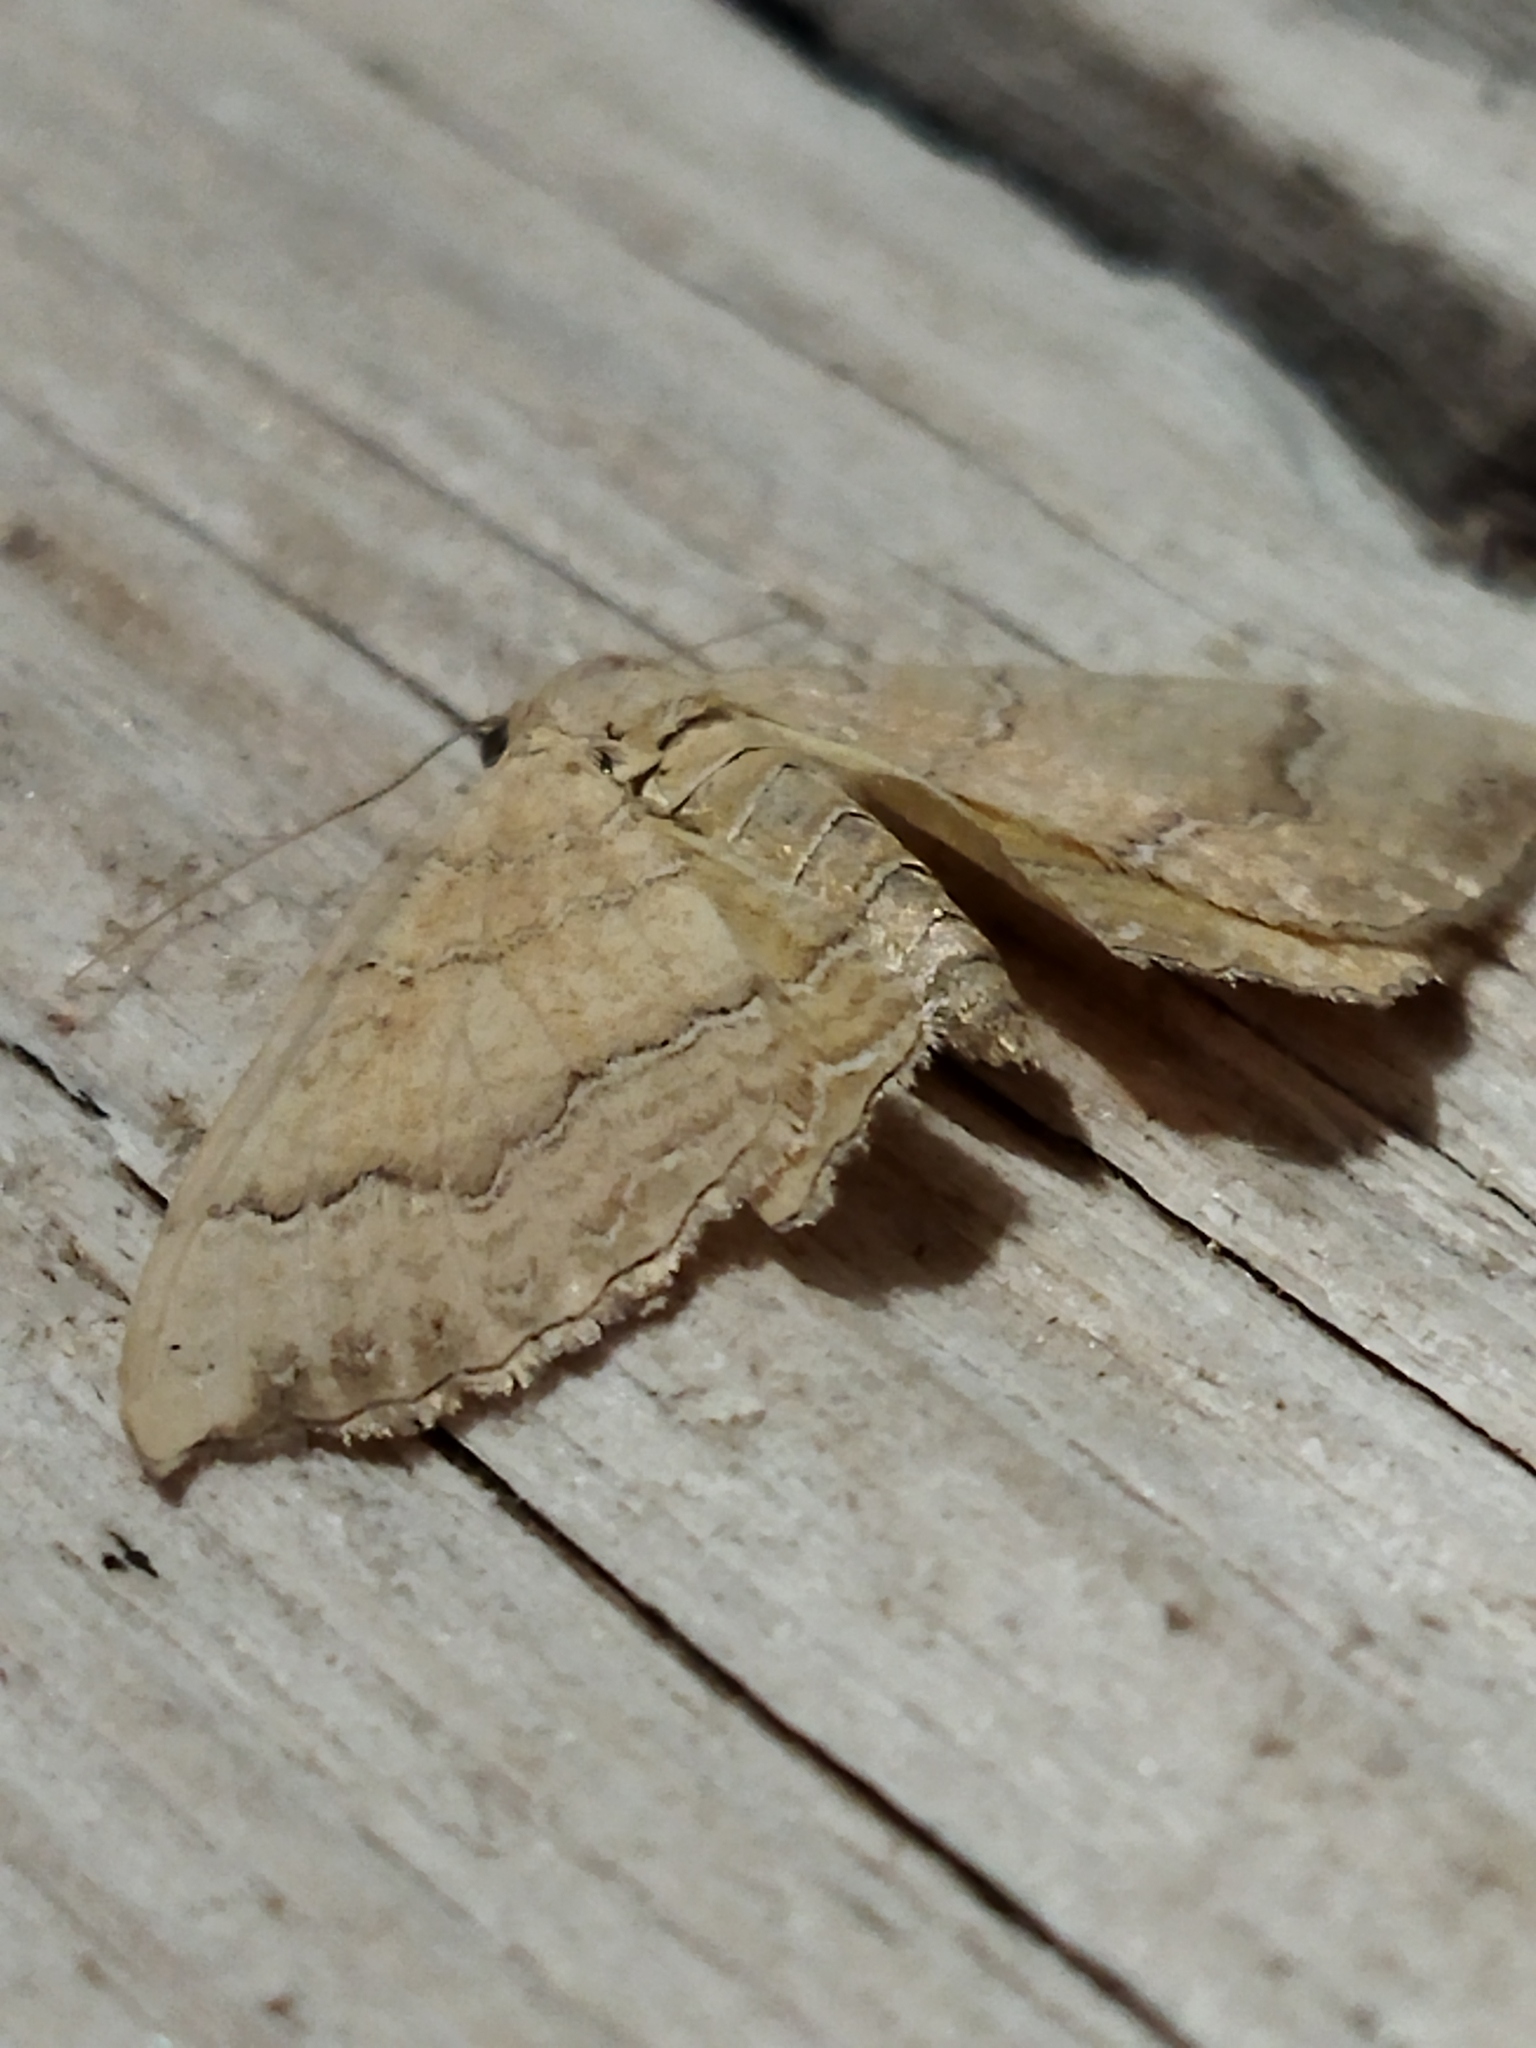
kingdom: Animalia
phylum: Arthropoda
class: Insecta
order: Lepidoptera
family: Geometridae
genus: Camptogramma
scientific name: Camptogramma bilineata
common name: Yellow shell
